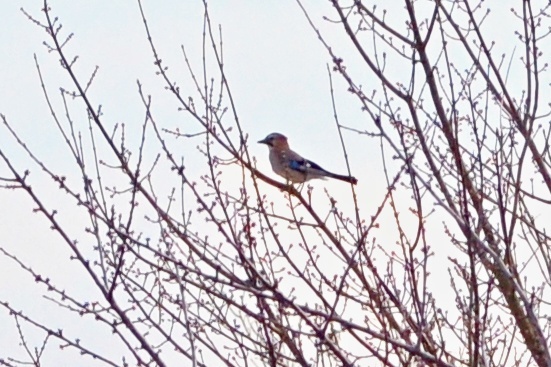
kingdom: Animalia
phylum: Chordata
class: Aves
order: Passeriformes
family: Corvidae
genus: Garrulus
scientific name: Garrulus glandarius
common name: Eurasian jay
